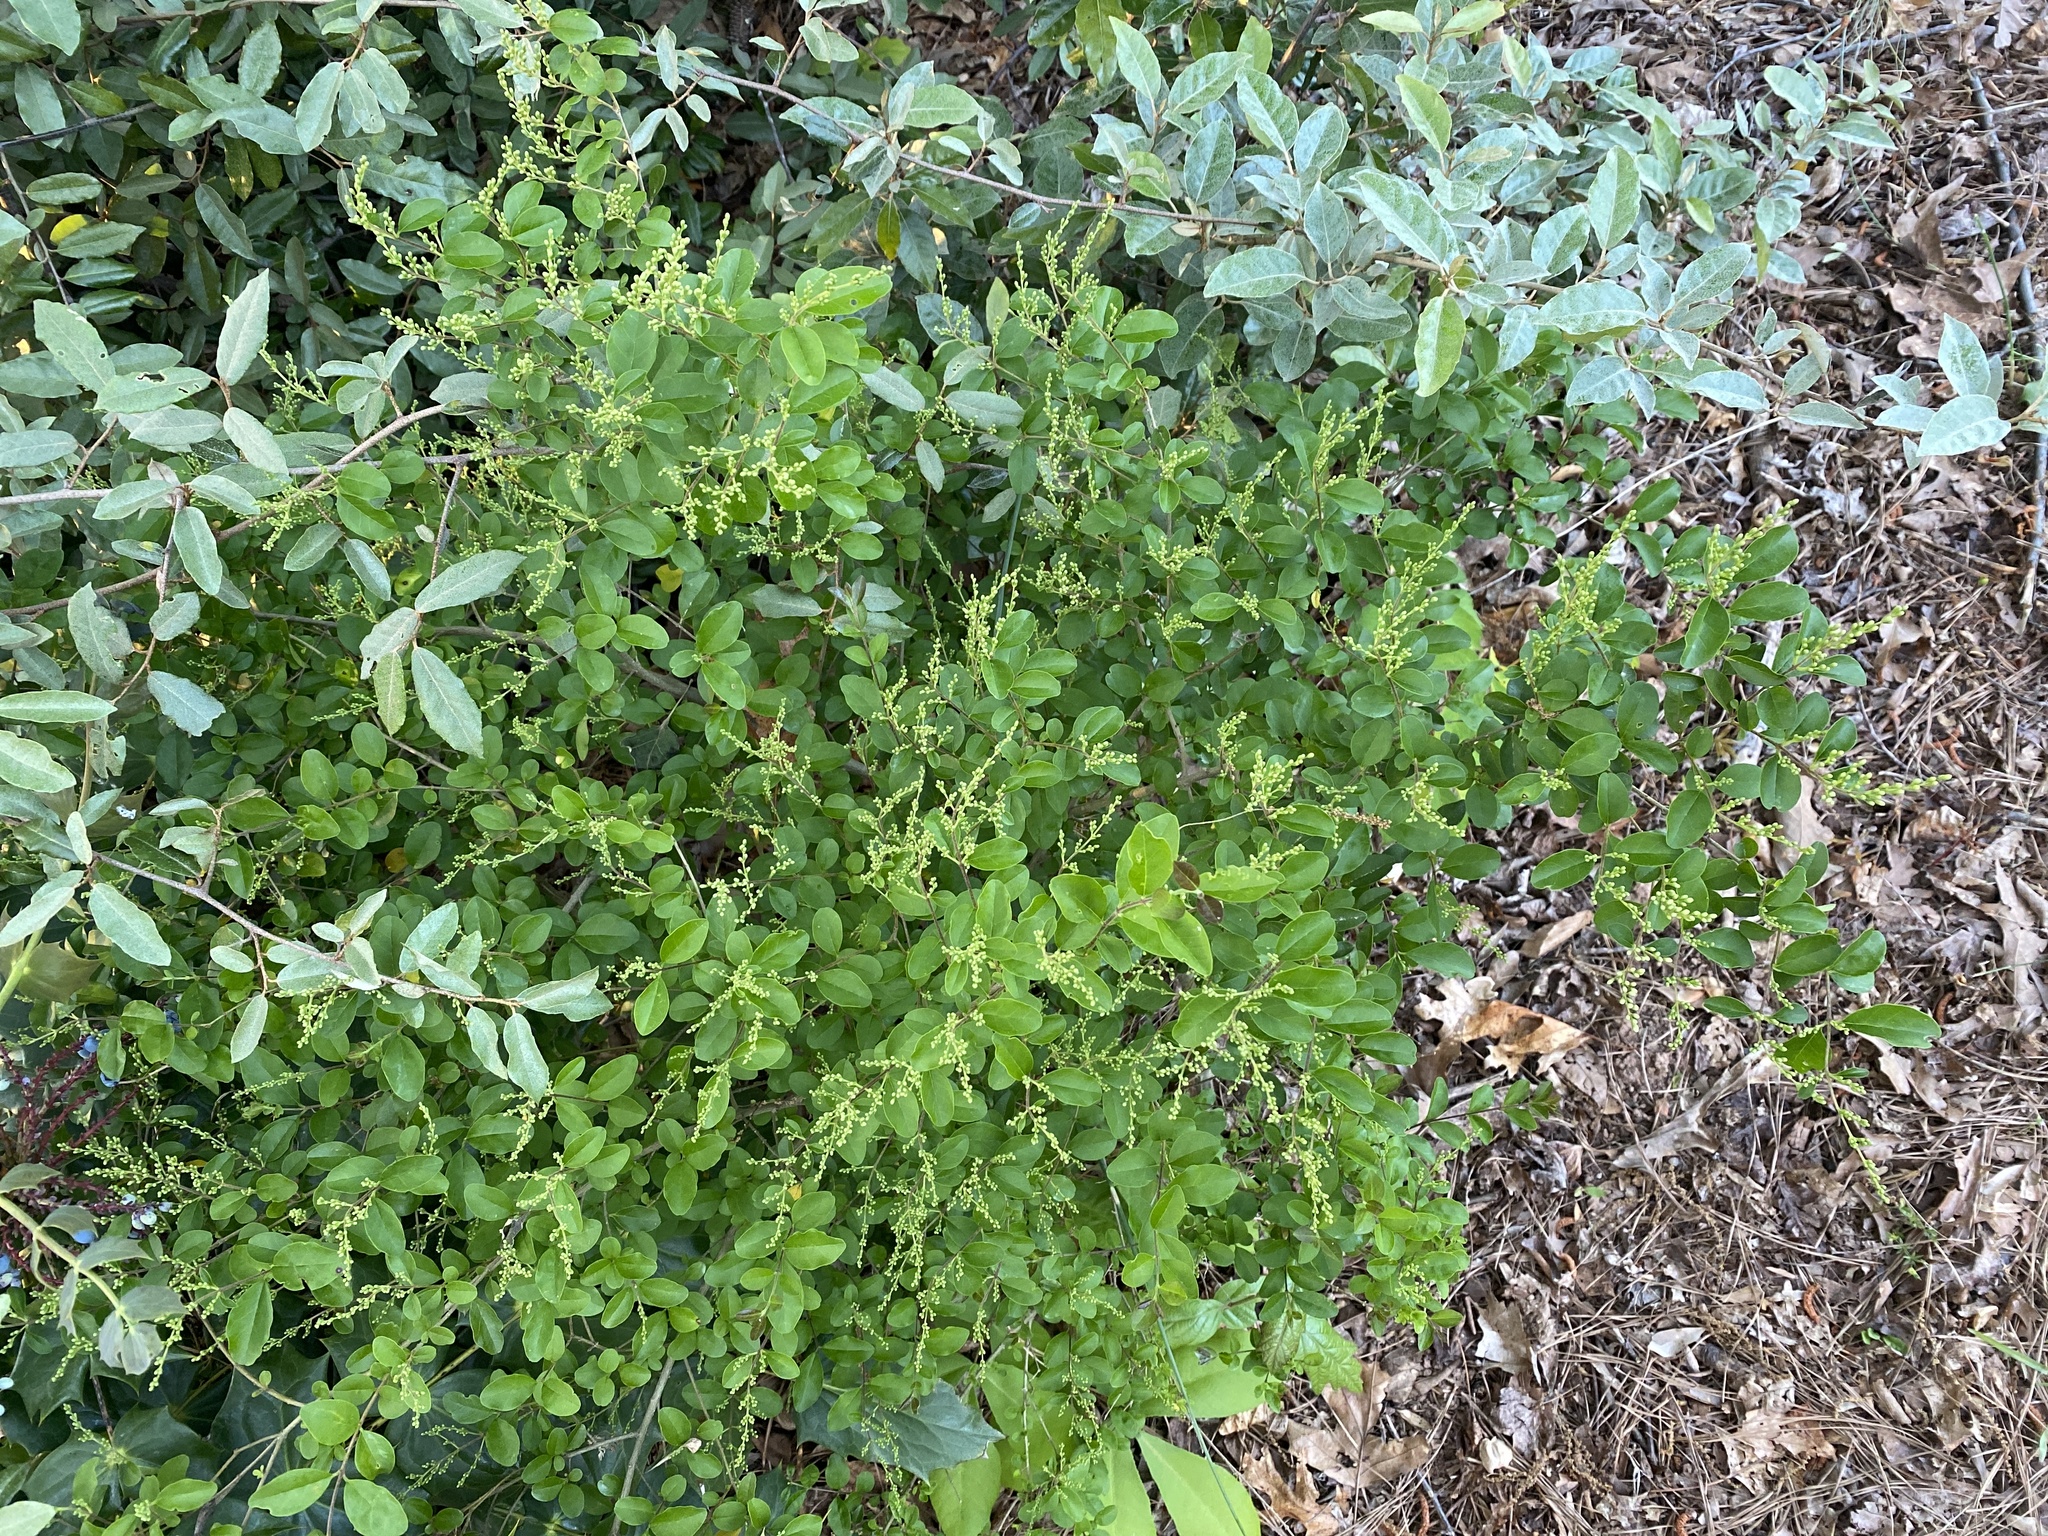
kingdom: Plantae
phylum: Tracheophyta
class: Magnoliopsida
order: Lamiales
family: Oleaceae
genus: Ligustrum
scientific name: Ligustrum sinense
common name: Chinese privet
